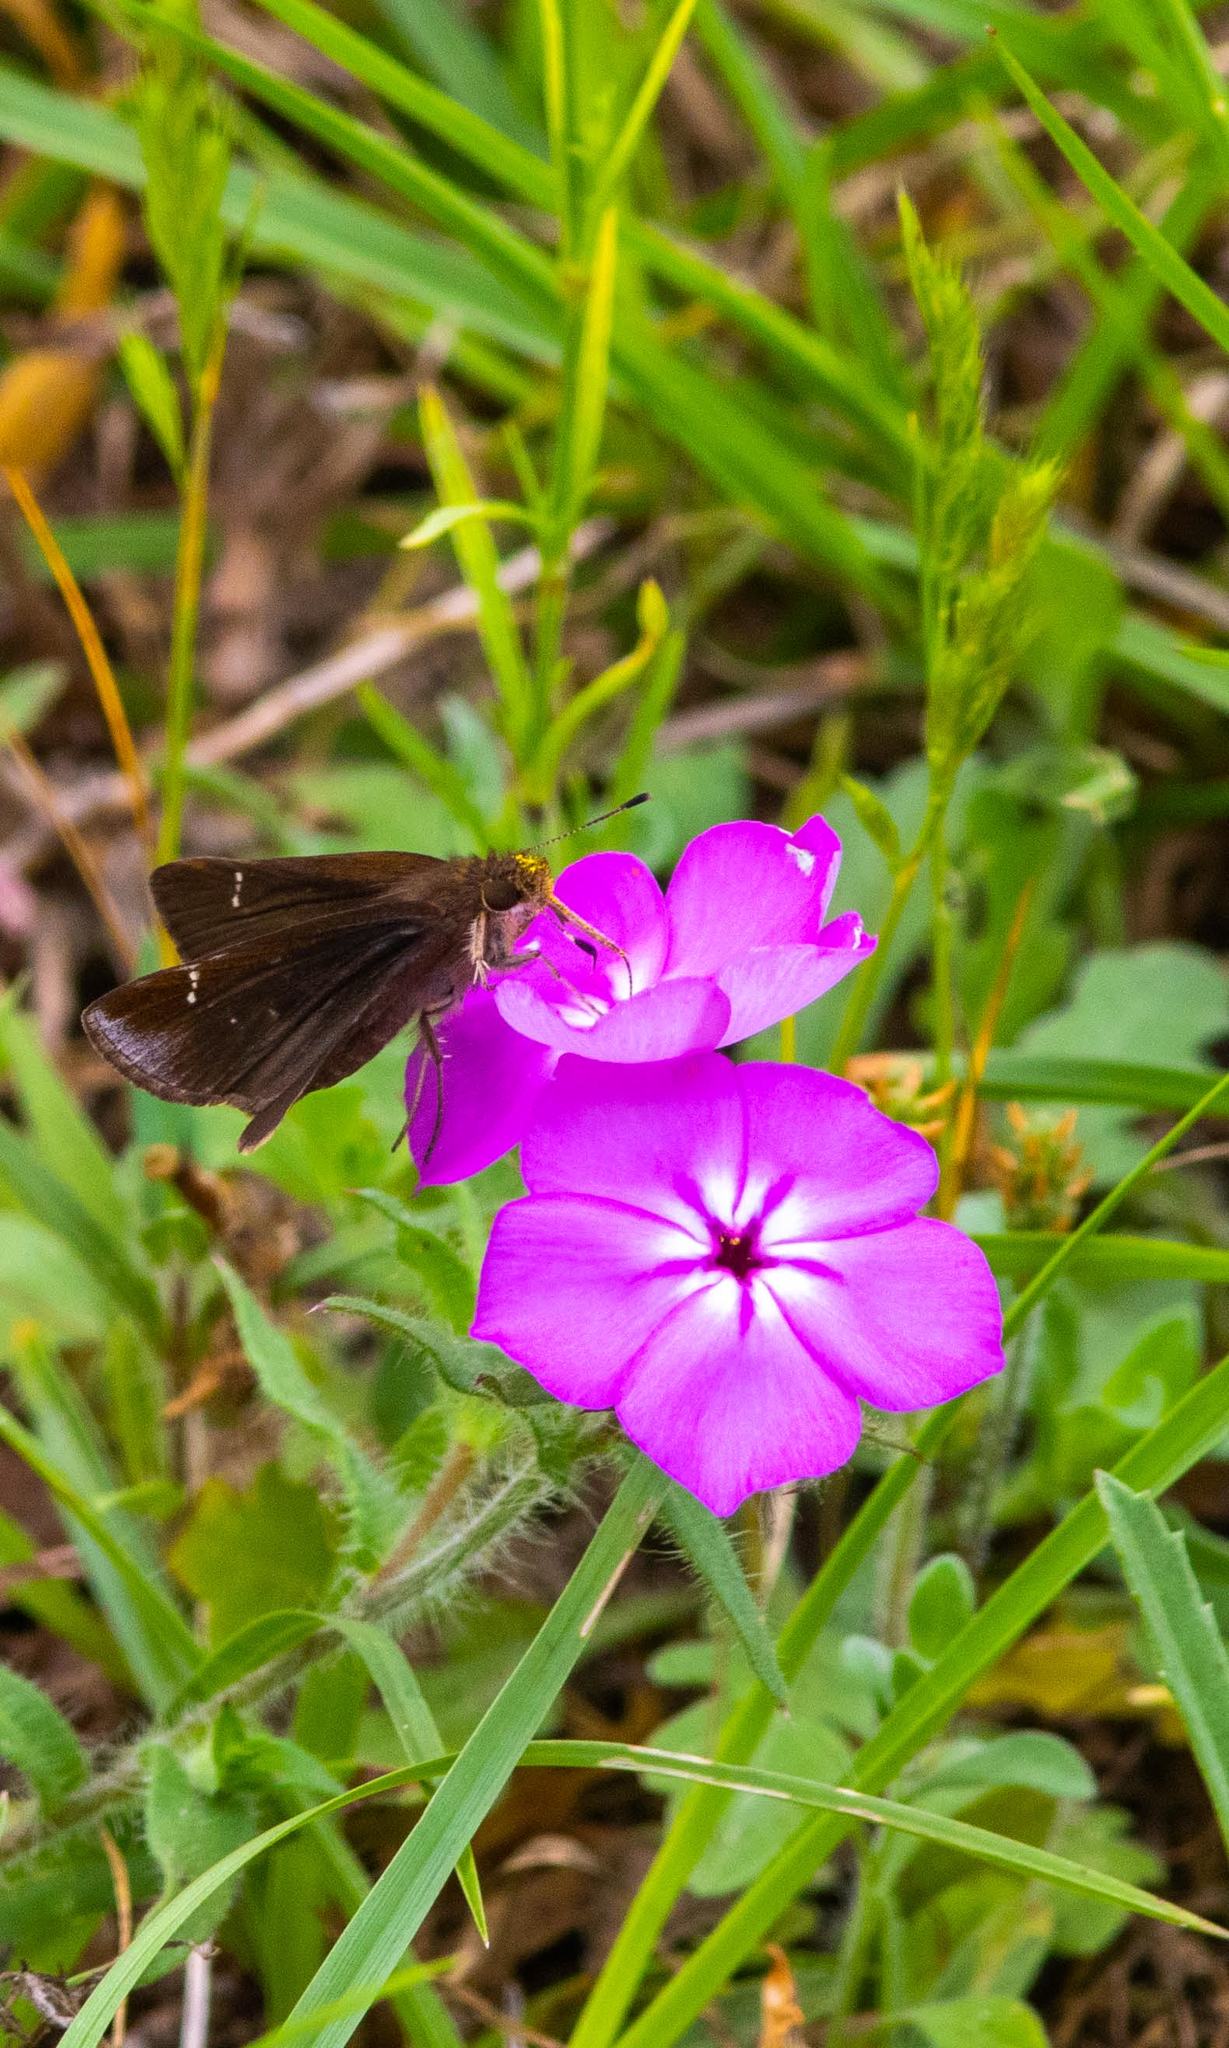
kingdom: Animalia
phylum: Arthropoda
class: Insecta
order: Lepidoptera
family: Hesperiidae
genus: Lerema
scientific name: Lerema accius
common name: Clouded skipper
